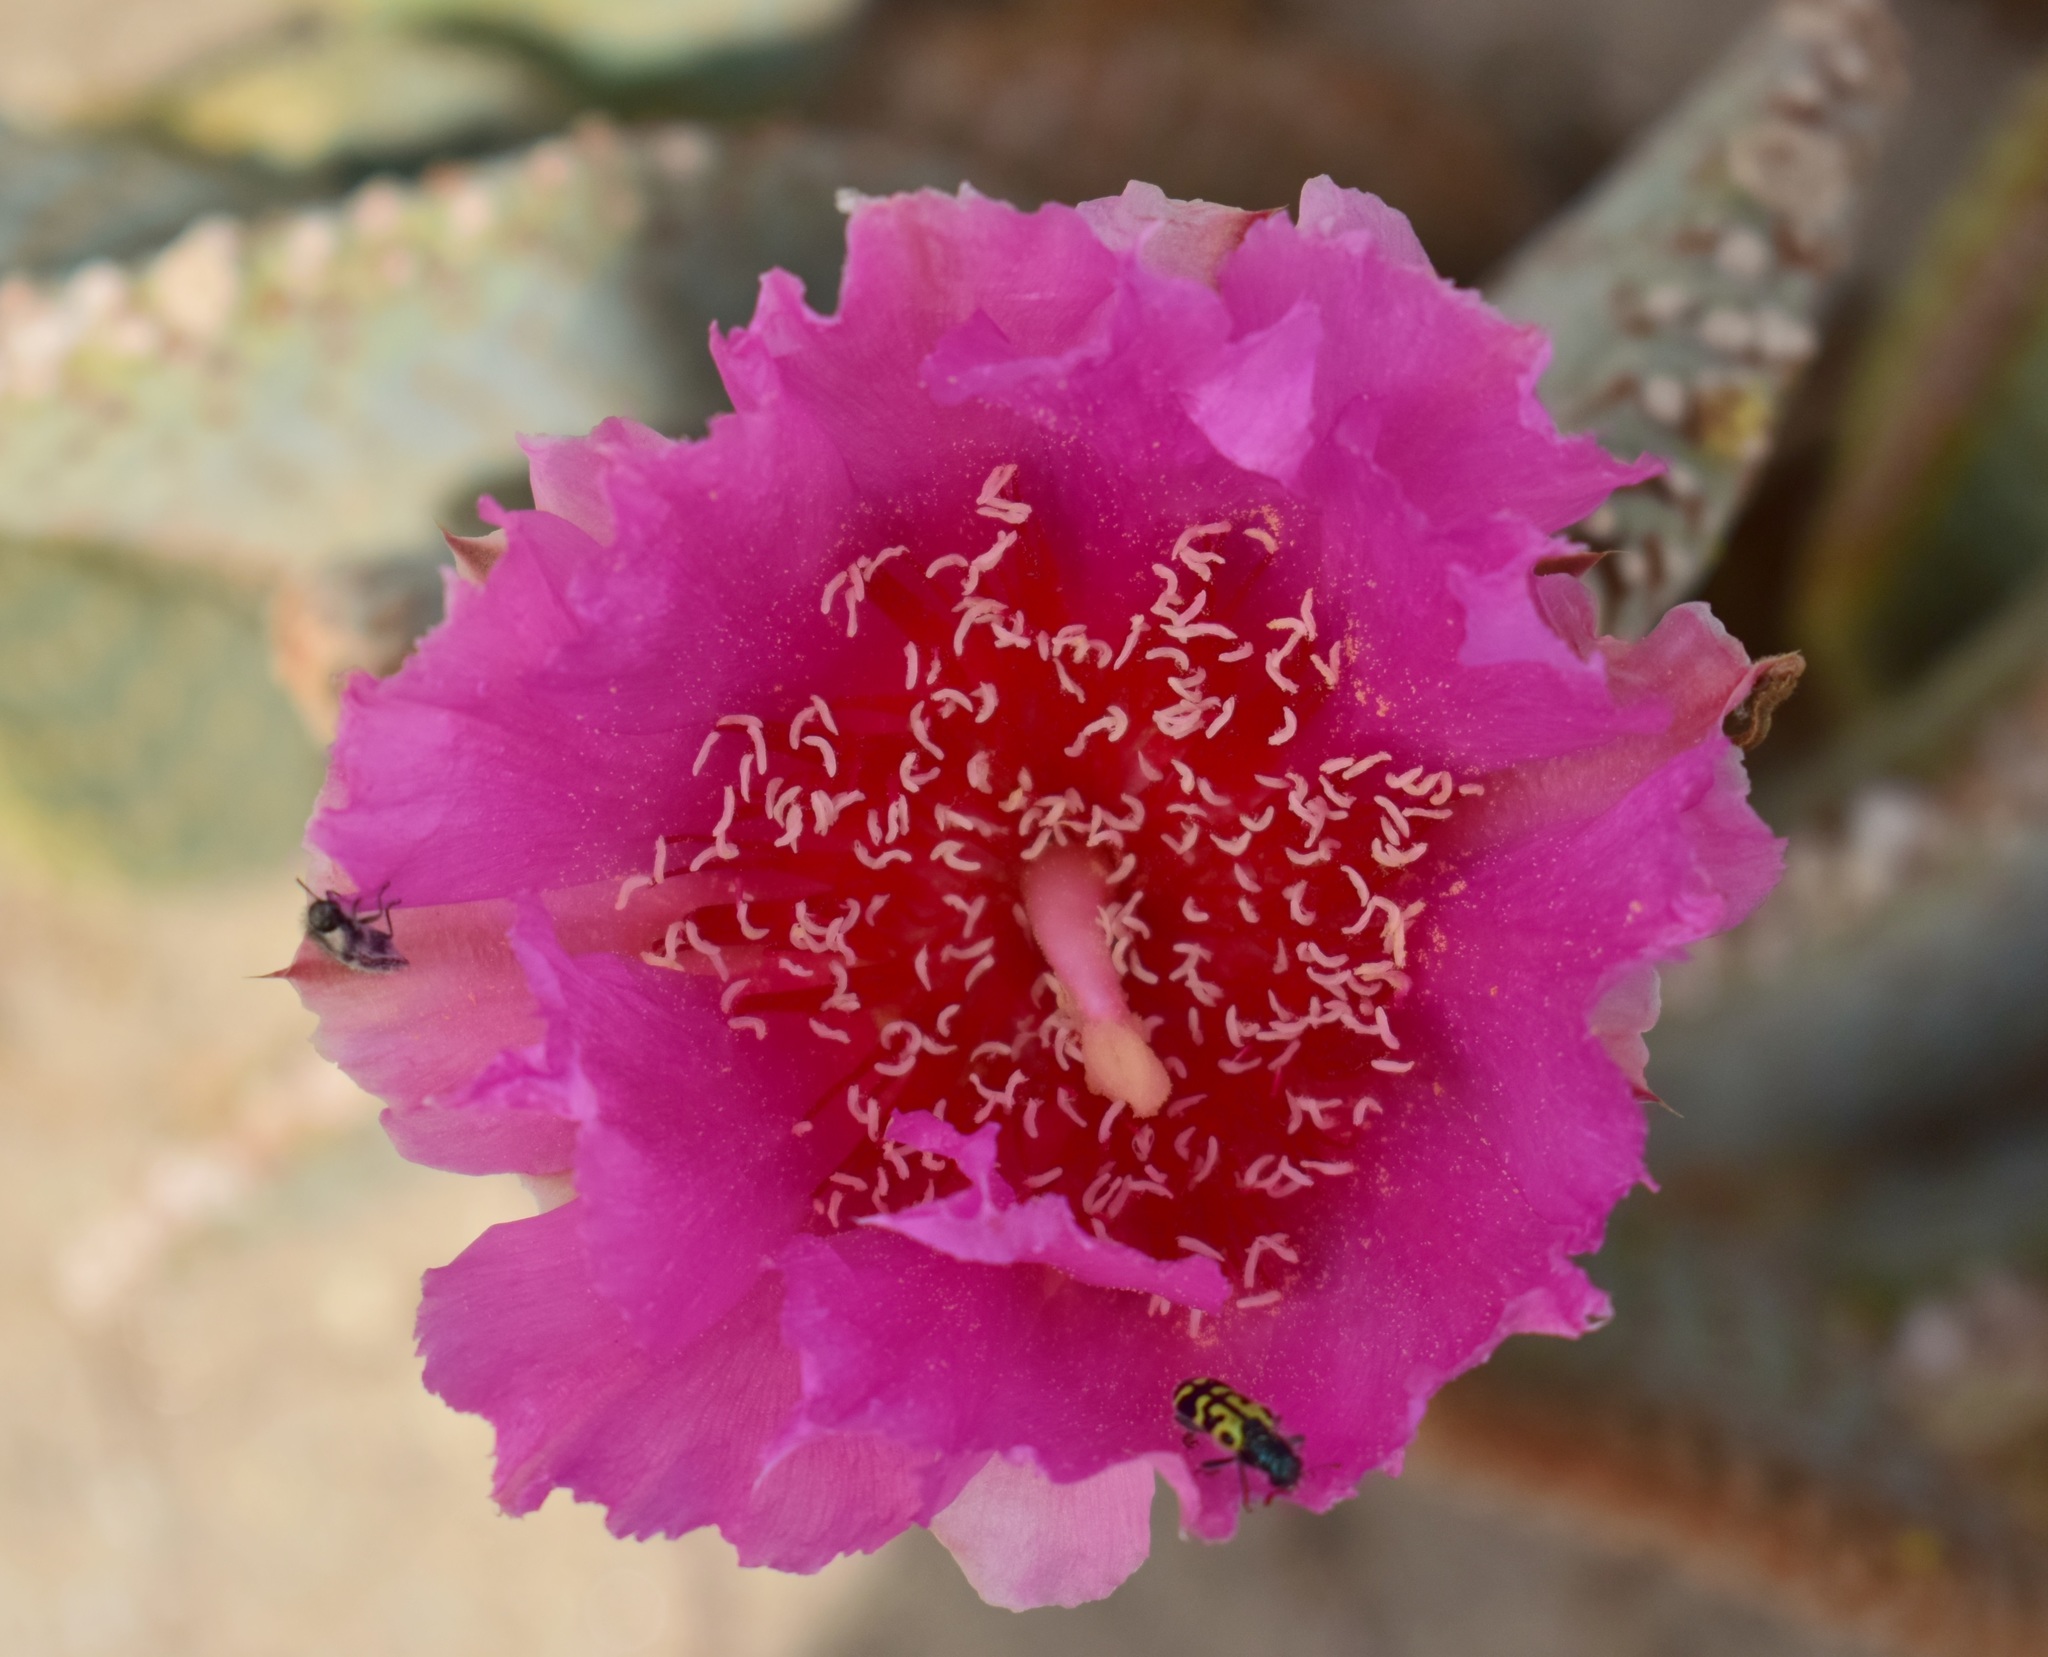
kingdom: Plantae
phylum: Tracheophyta
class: Magnoliopsida
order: Caryophyllales
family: Cactaceae
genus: Opuntia
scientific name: Opuntia basilaris
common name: Beavertail prickly-pear
